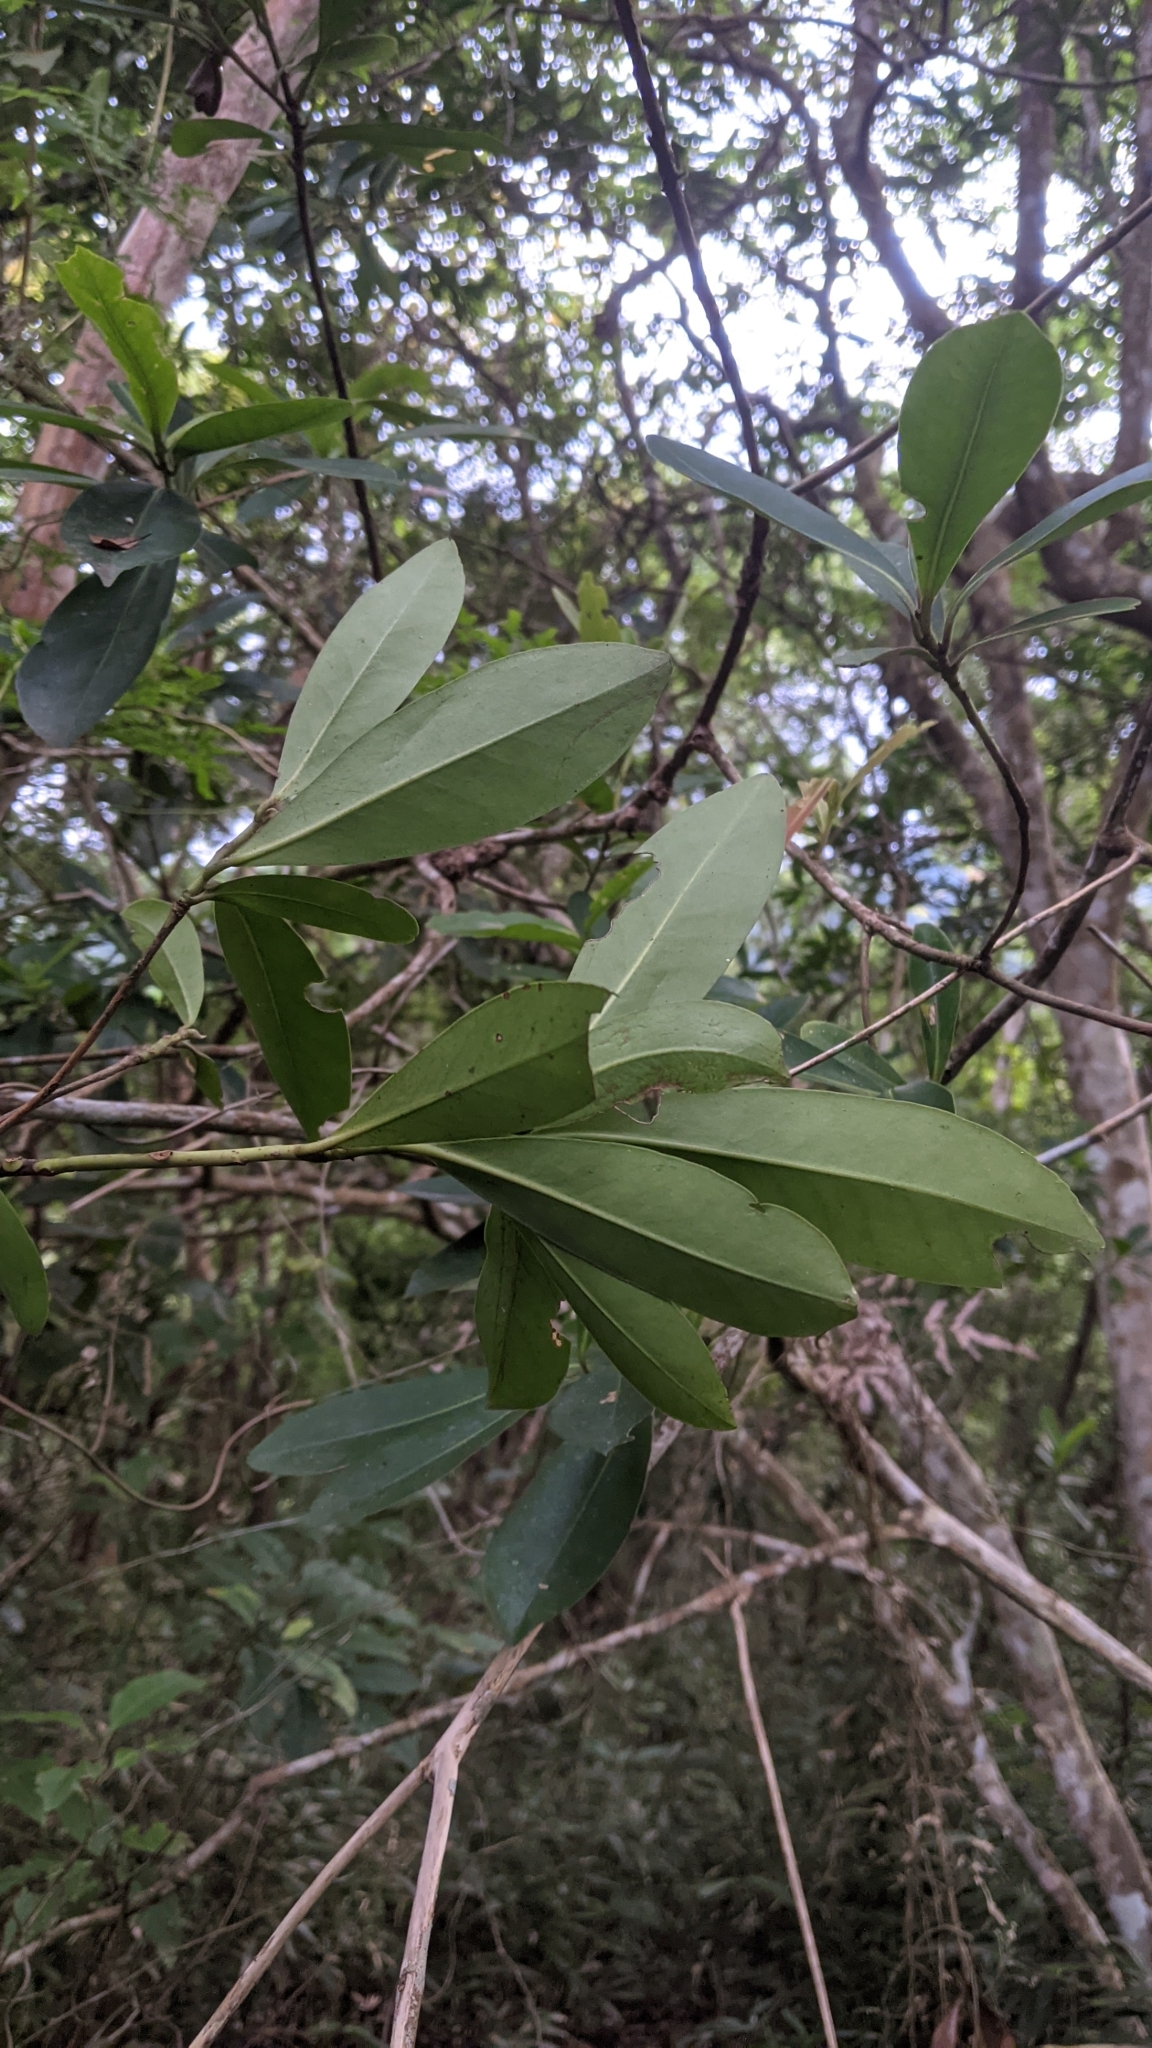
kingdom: Plantae
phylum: Tracheophyta
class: Magnoliopsida
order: Ericales
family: Theaceae
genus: Polyspora
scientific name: Polyspora axillaris
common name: Fried egg tree
